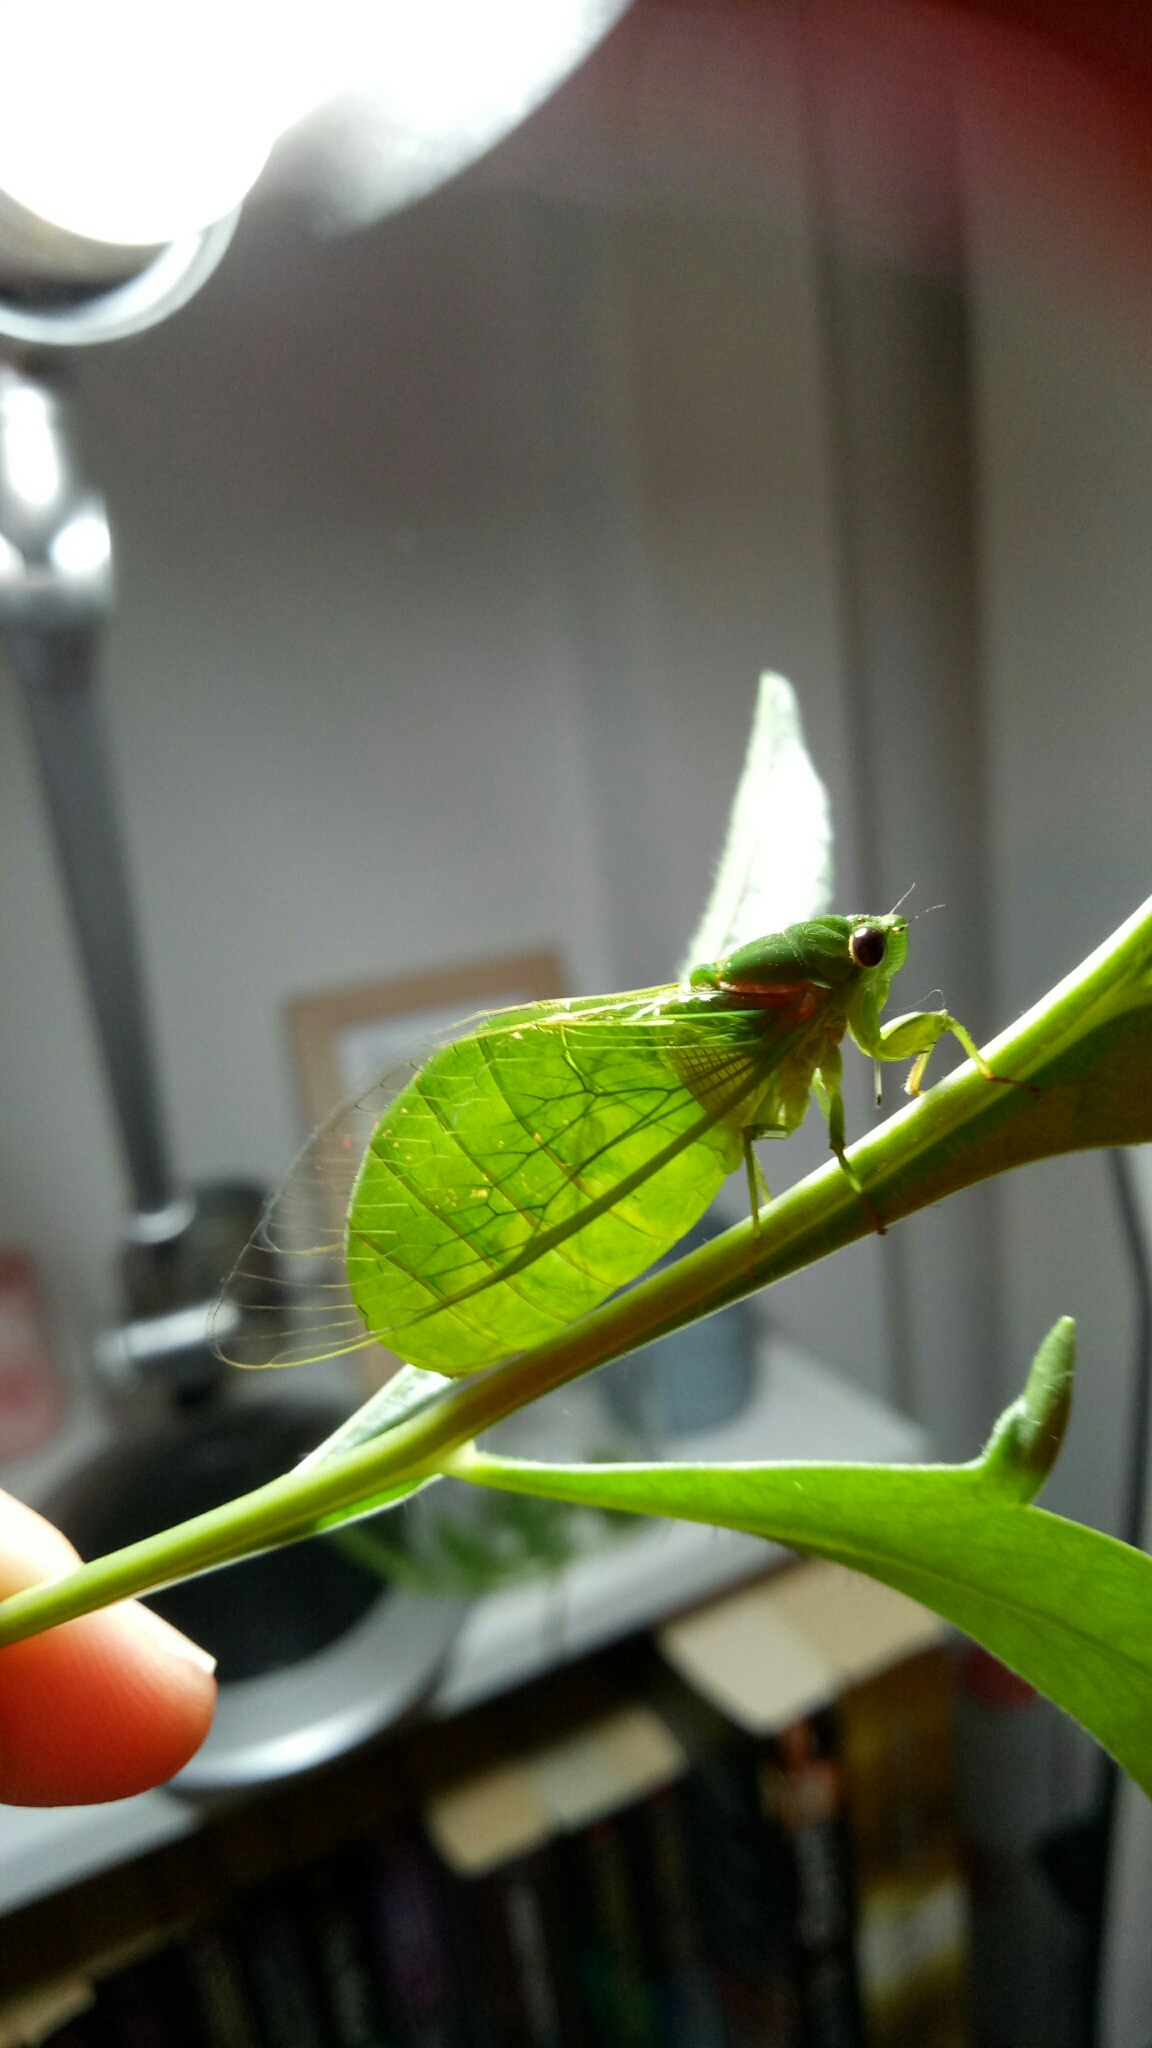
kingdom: Animalia
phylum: Arthropoda
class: Insecta
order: Hemiptera
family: Cicadidae
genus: Glaucopsaltria
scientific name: Glaucopsaltria viridis
